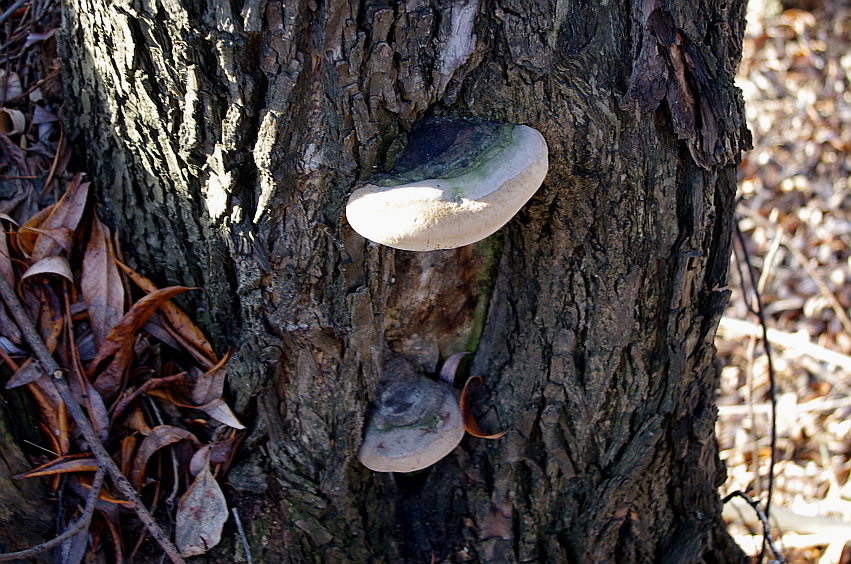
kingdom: Fungi
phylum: Basidiomycota
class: Agaricomycetes
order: Hymenochaetales
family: Hymenochaetaceae
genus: Phellinus
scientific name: Phellinus igniarius
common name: Willow bracket
